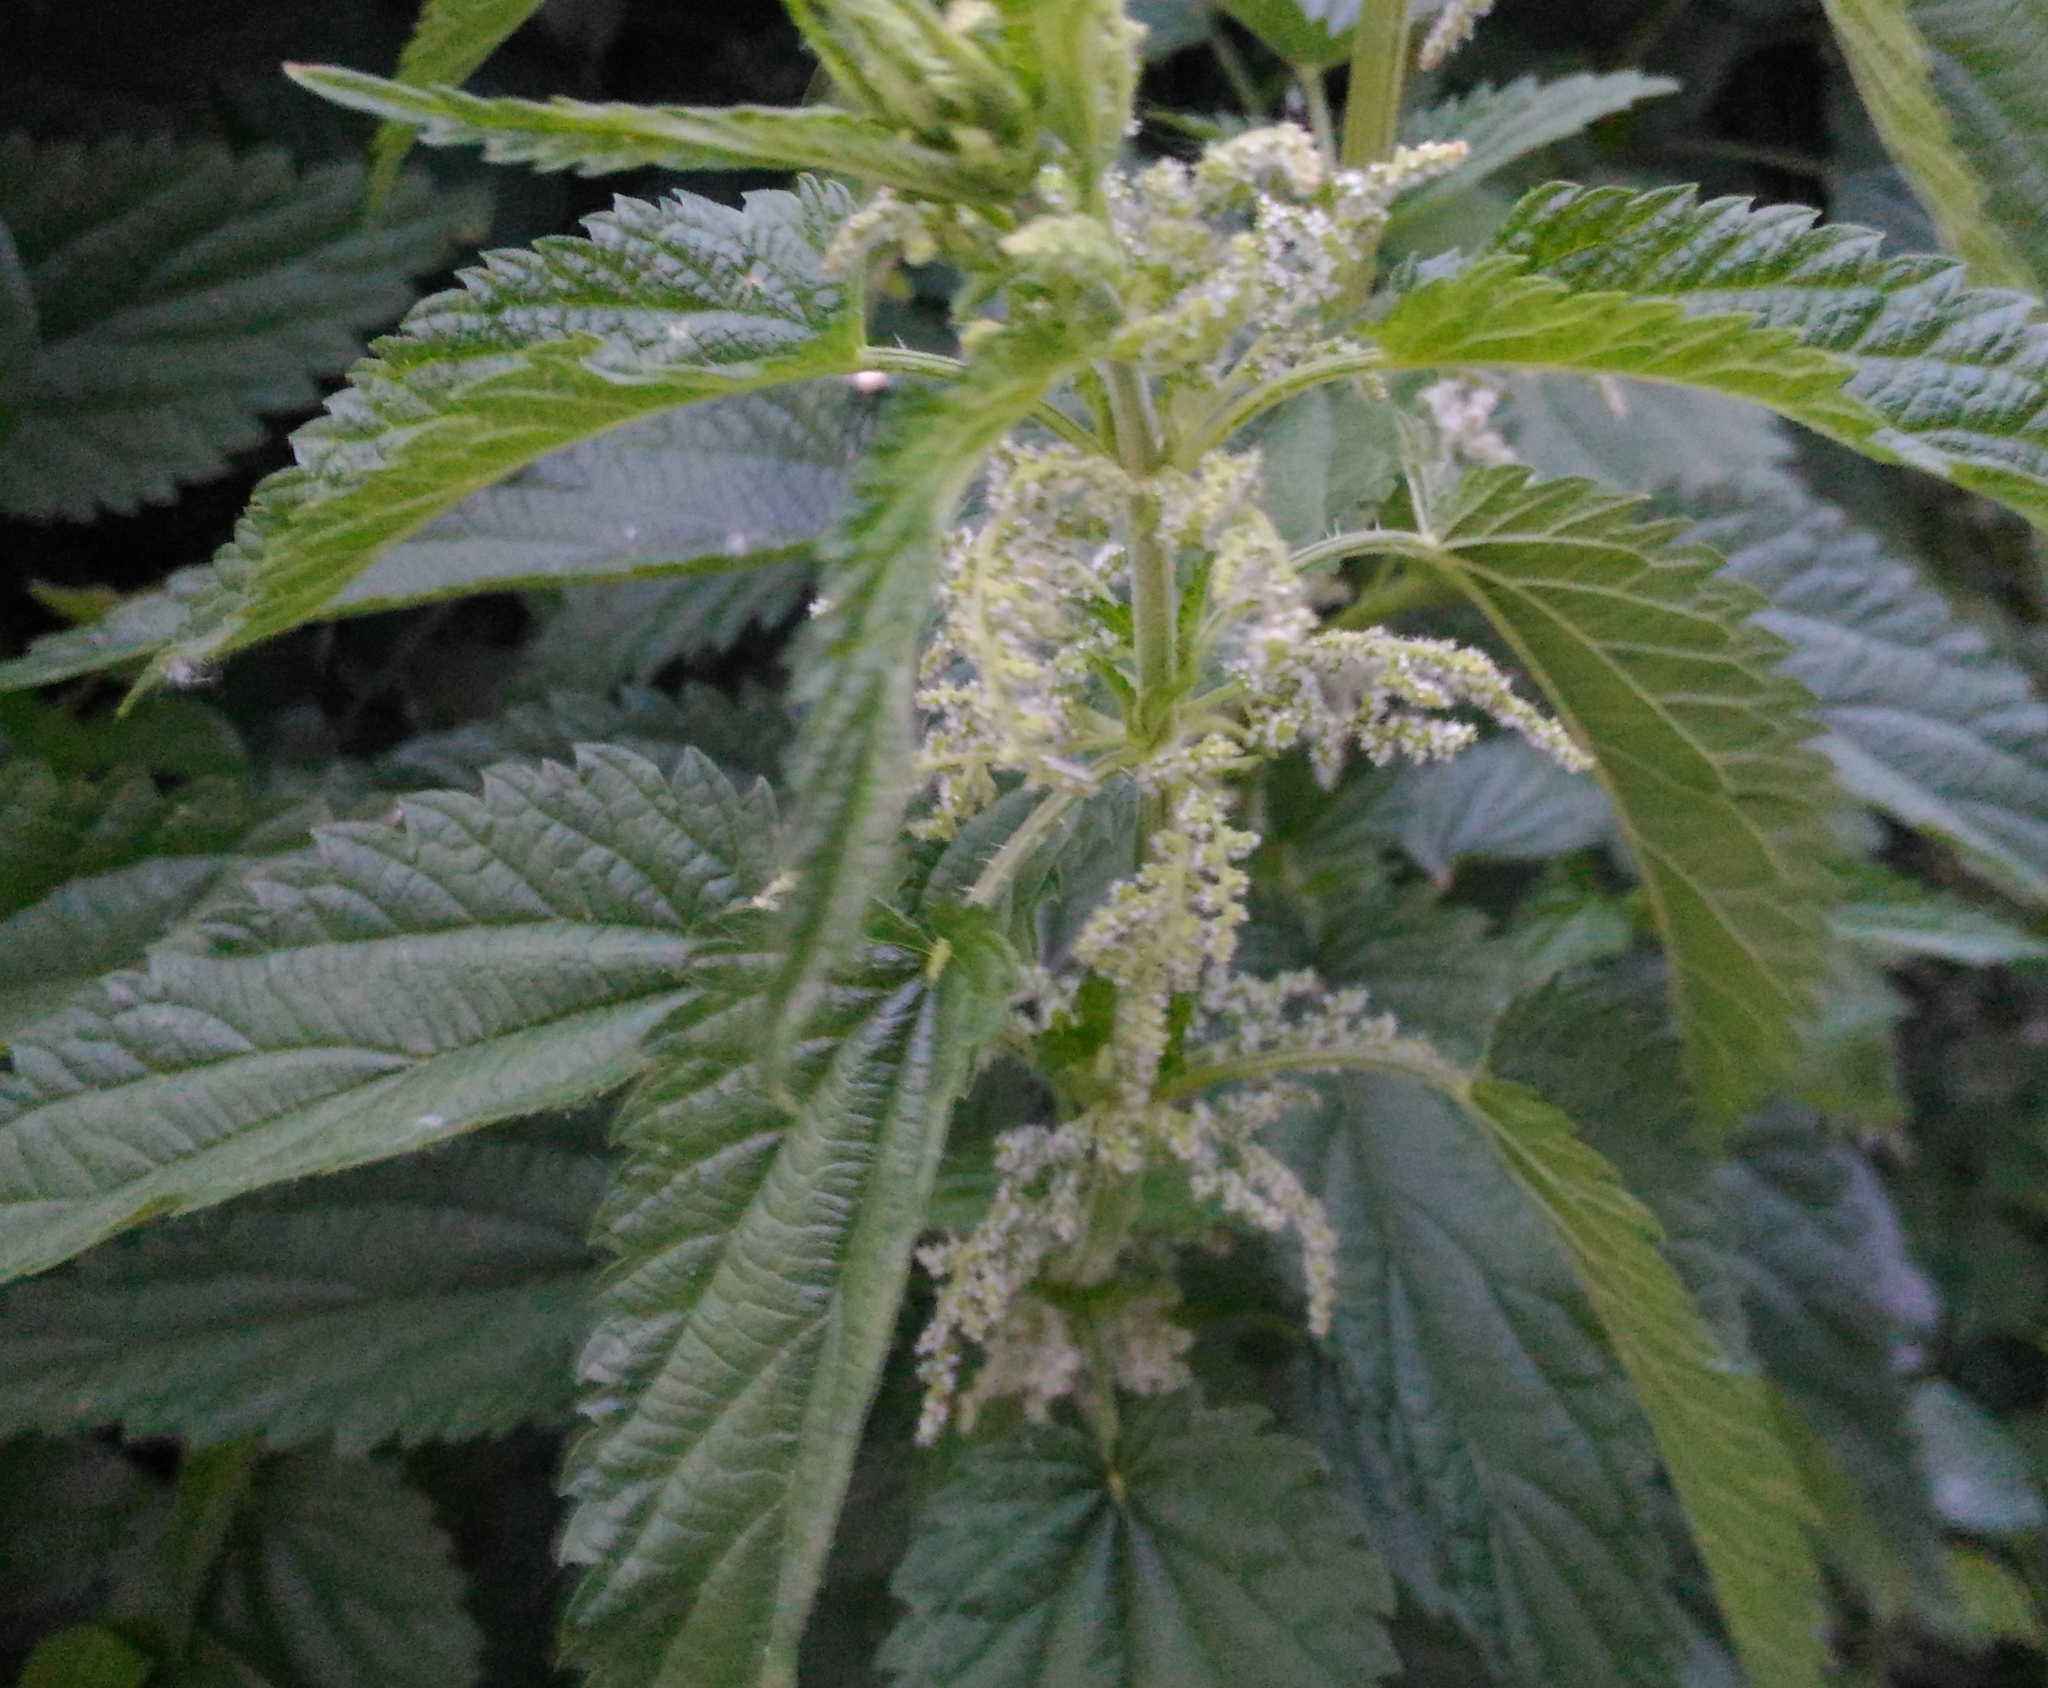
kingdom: Plantae
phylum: Tracheophyta
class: Magnoliopsida
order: Rosales
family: Urticaceae
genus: Urtica
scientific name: Urtica dioica
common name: Common nettle
